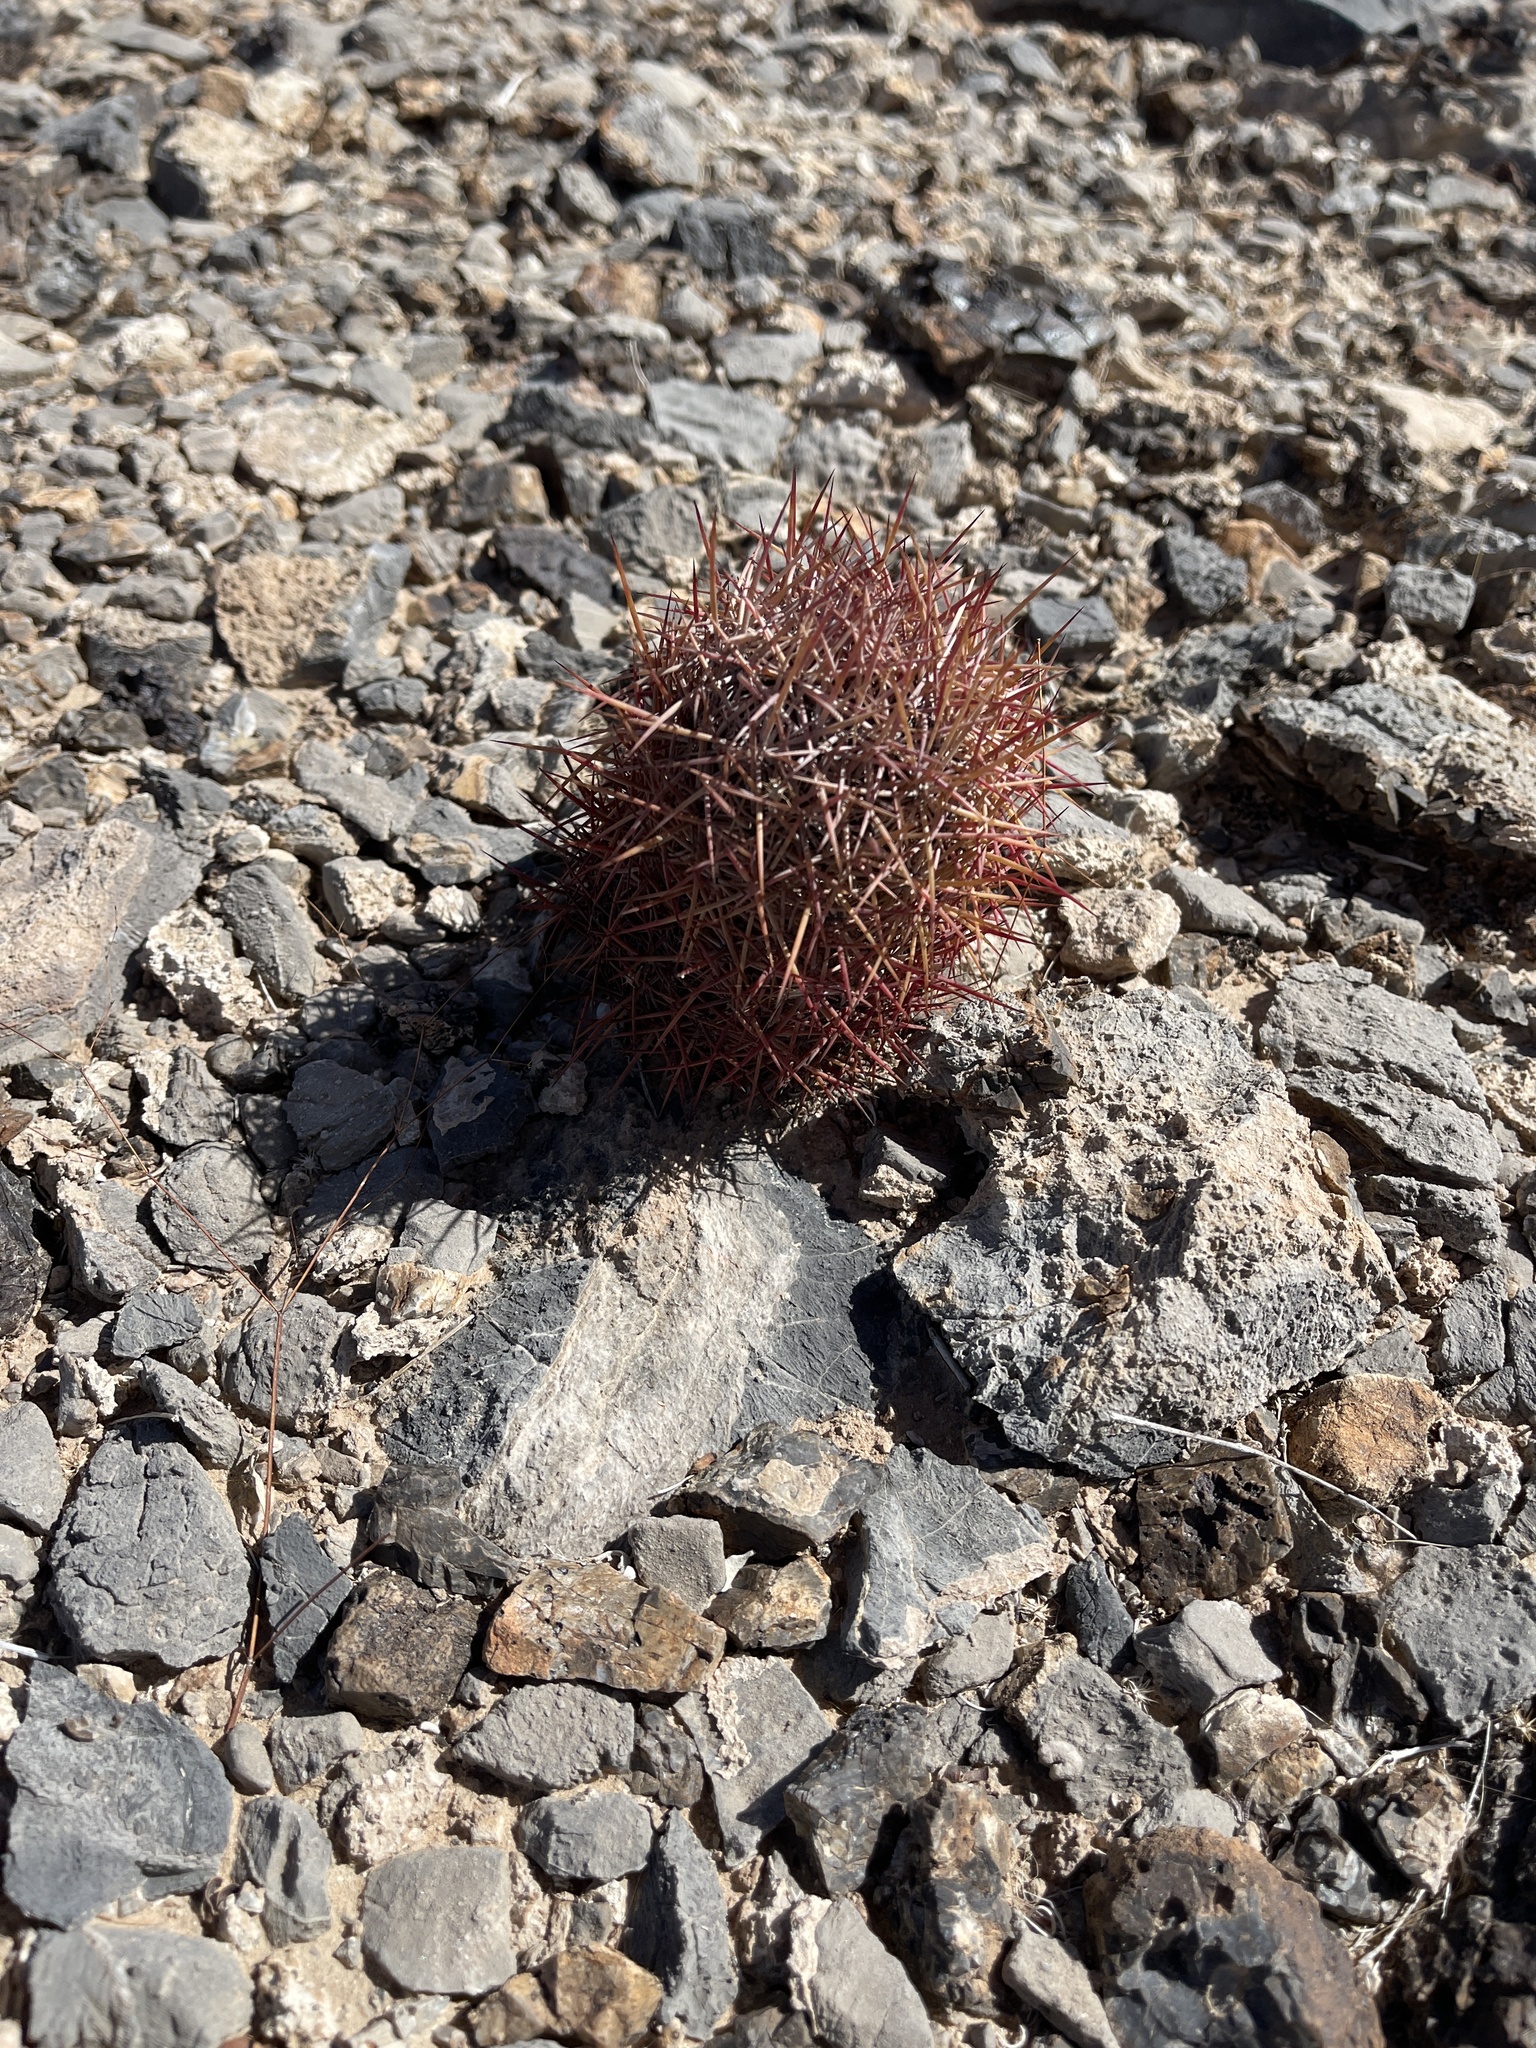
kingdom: Plantae
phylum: Tracheophyta
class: Magnoliopsida
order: Caryophyllales
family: Cactaceae
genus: Sclerocactus
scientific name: Sclerocactus johnsonii
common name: Eight-spine fishhook cactus
